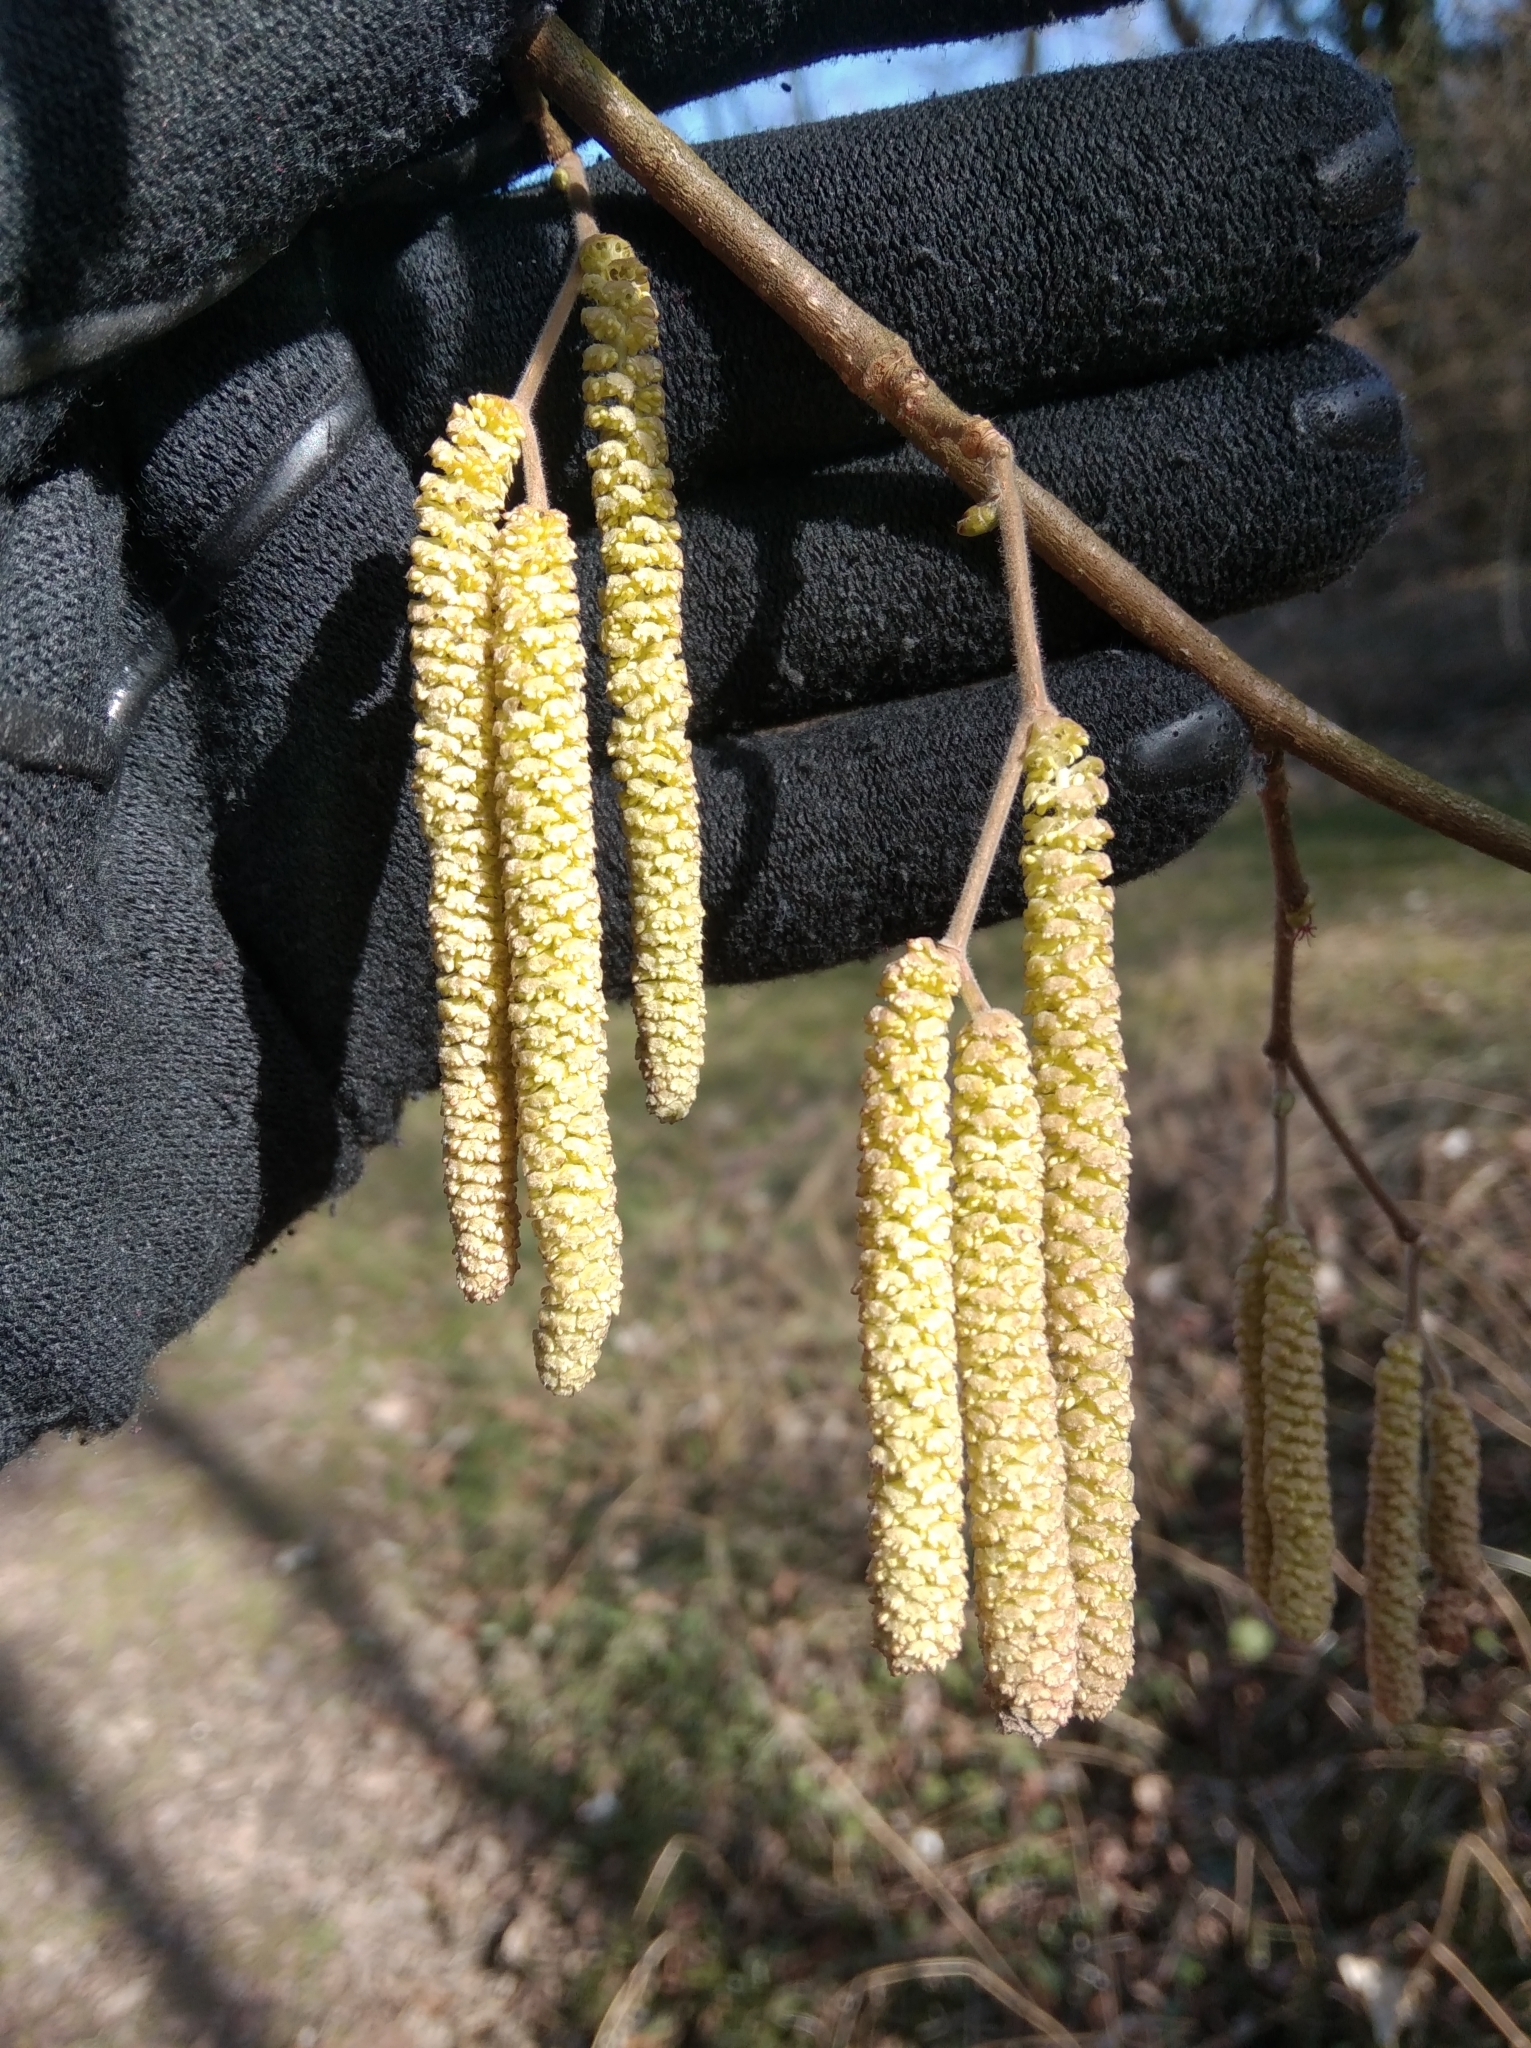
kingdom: Plantae
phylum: Tracheophyta
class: Magnoliopsida
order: Fagales
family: Betulaceae
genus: Corylus
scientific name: Corylus avellana
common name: European hazel
